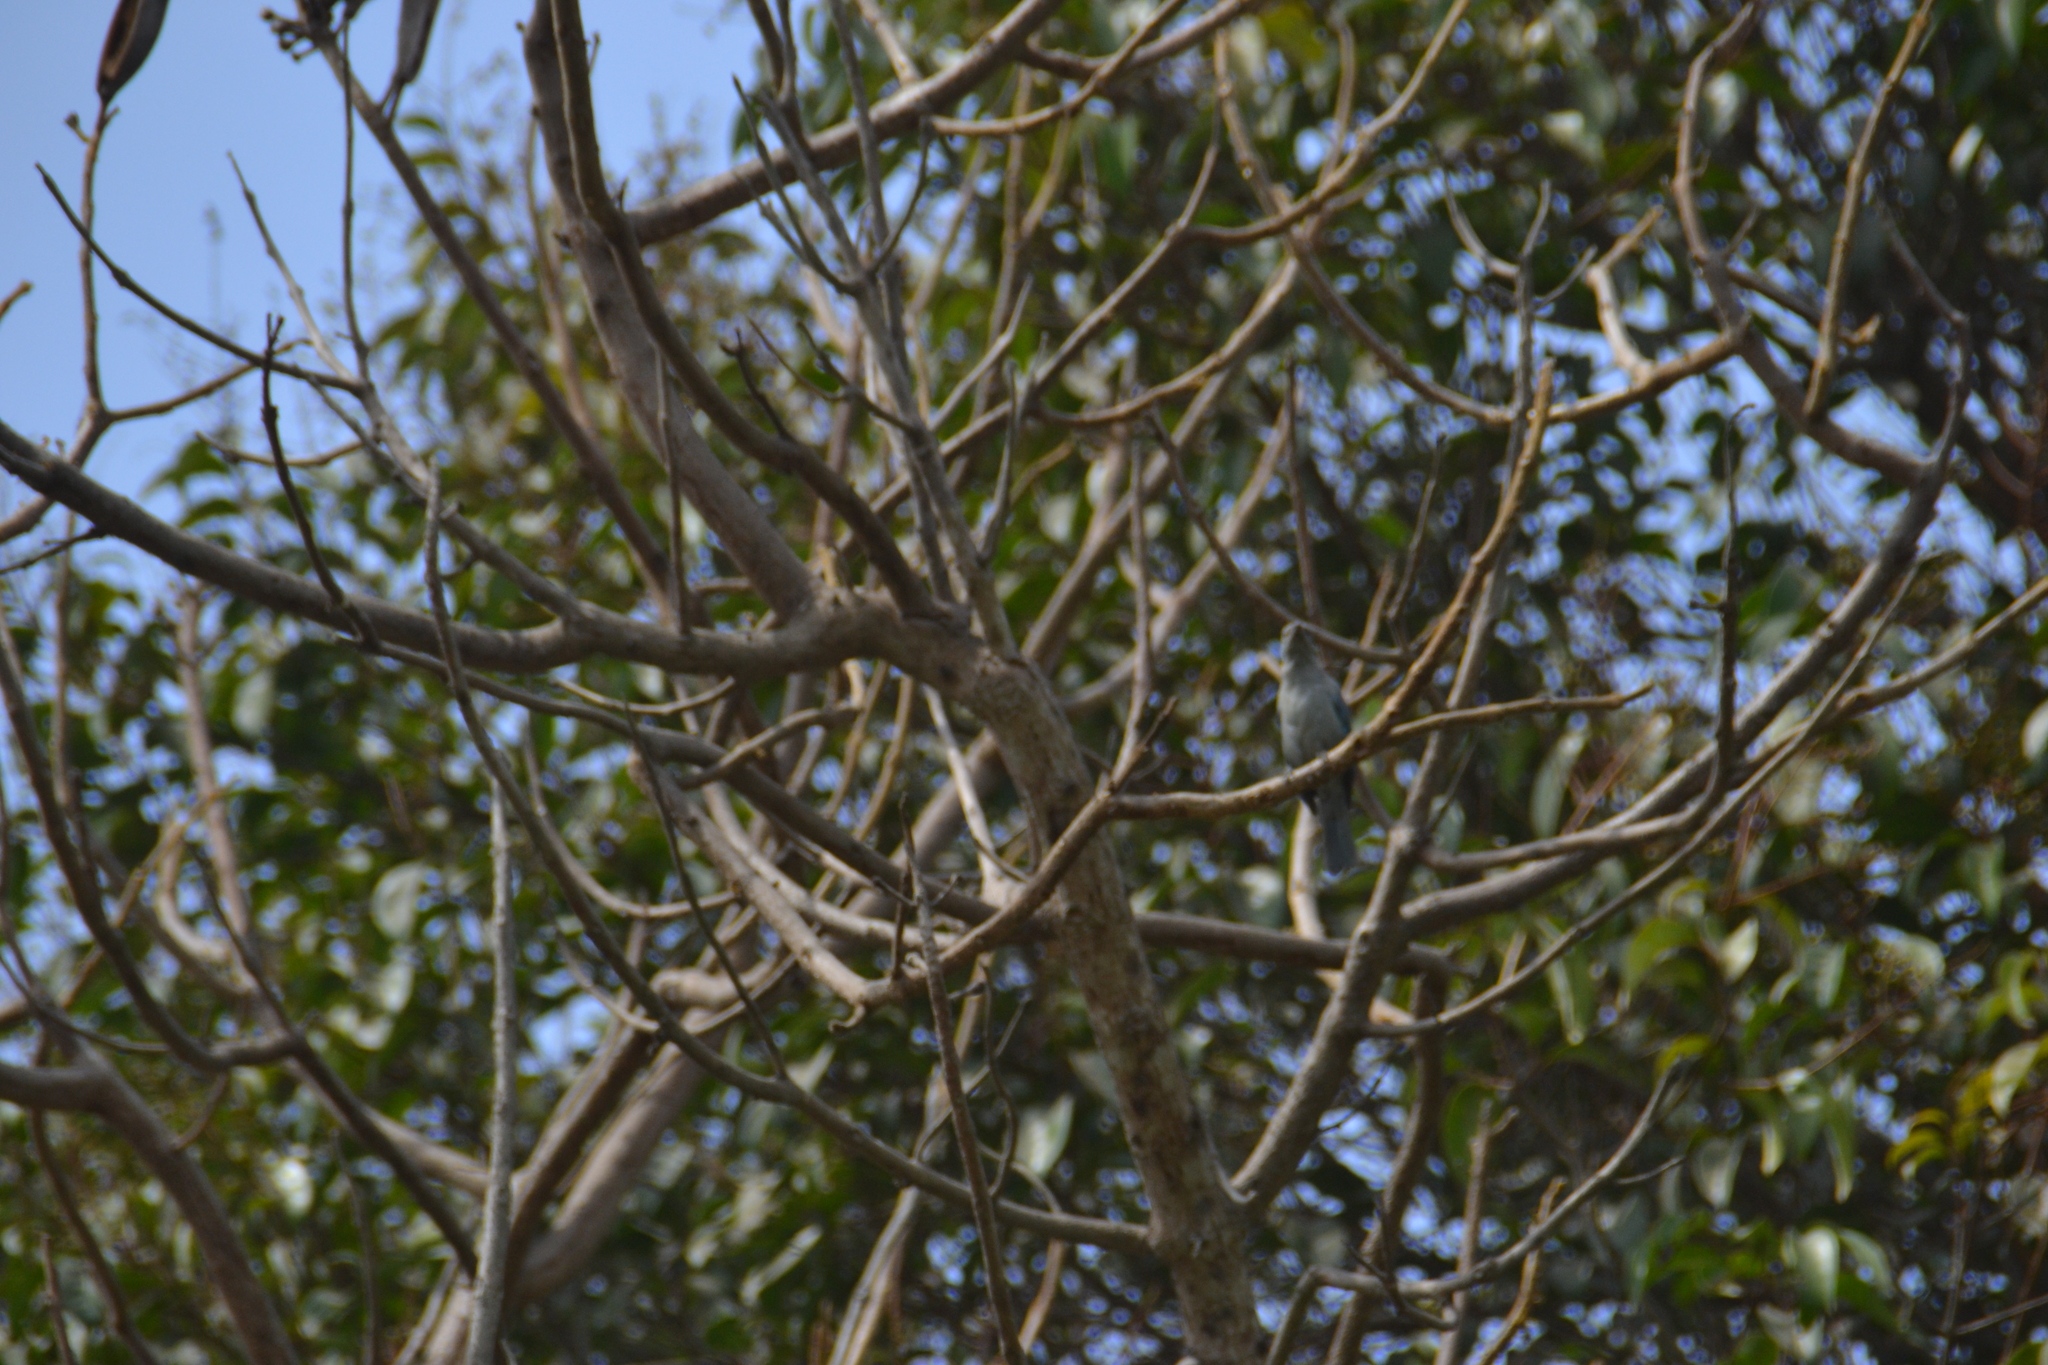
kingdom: Animalia
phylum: Chordata
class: Aves
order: Passeriformes
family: Thraupidae
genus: Thraupis
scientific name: Thraupis episcopus
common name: Blue-grey tanager
